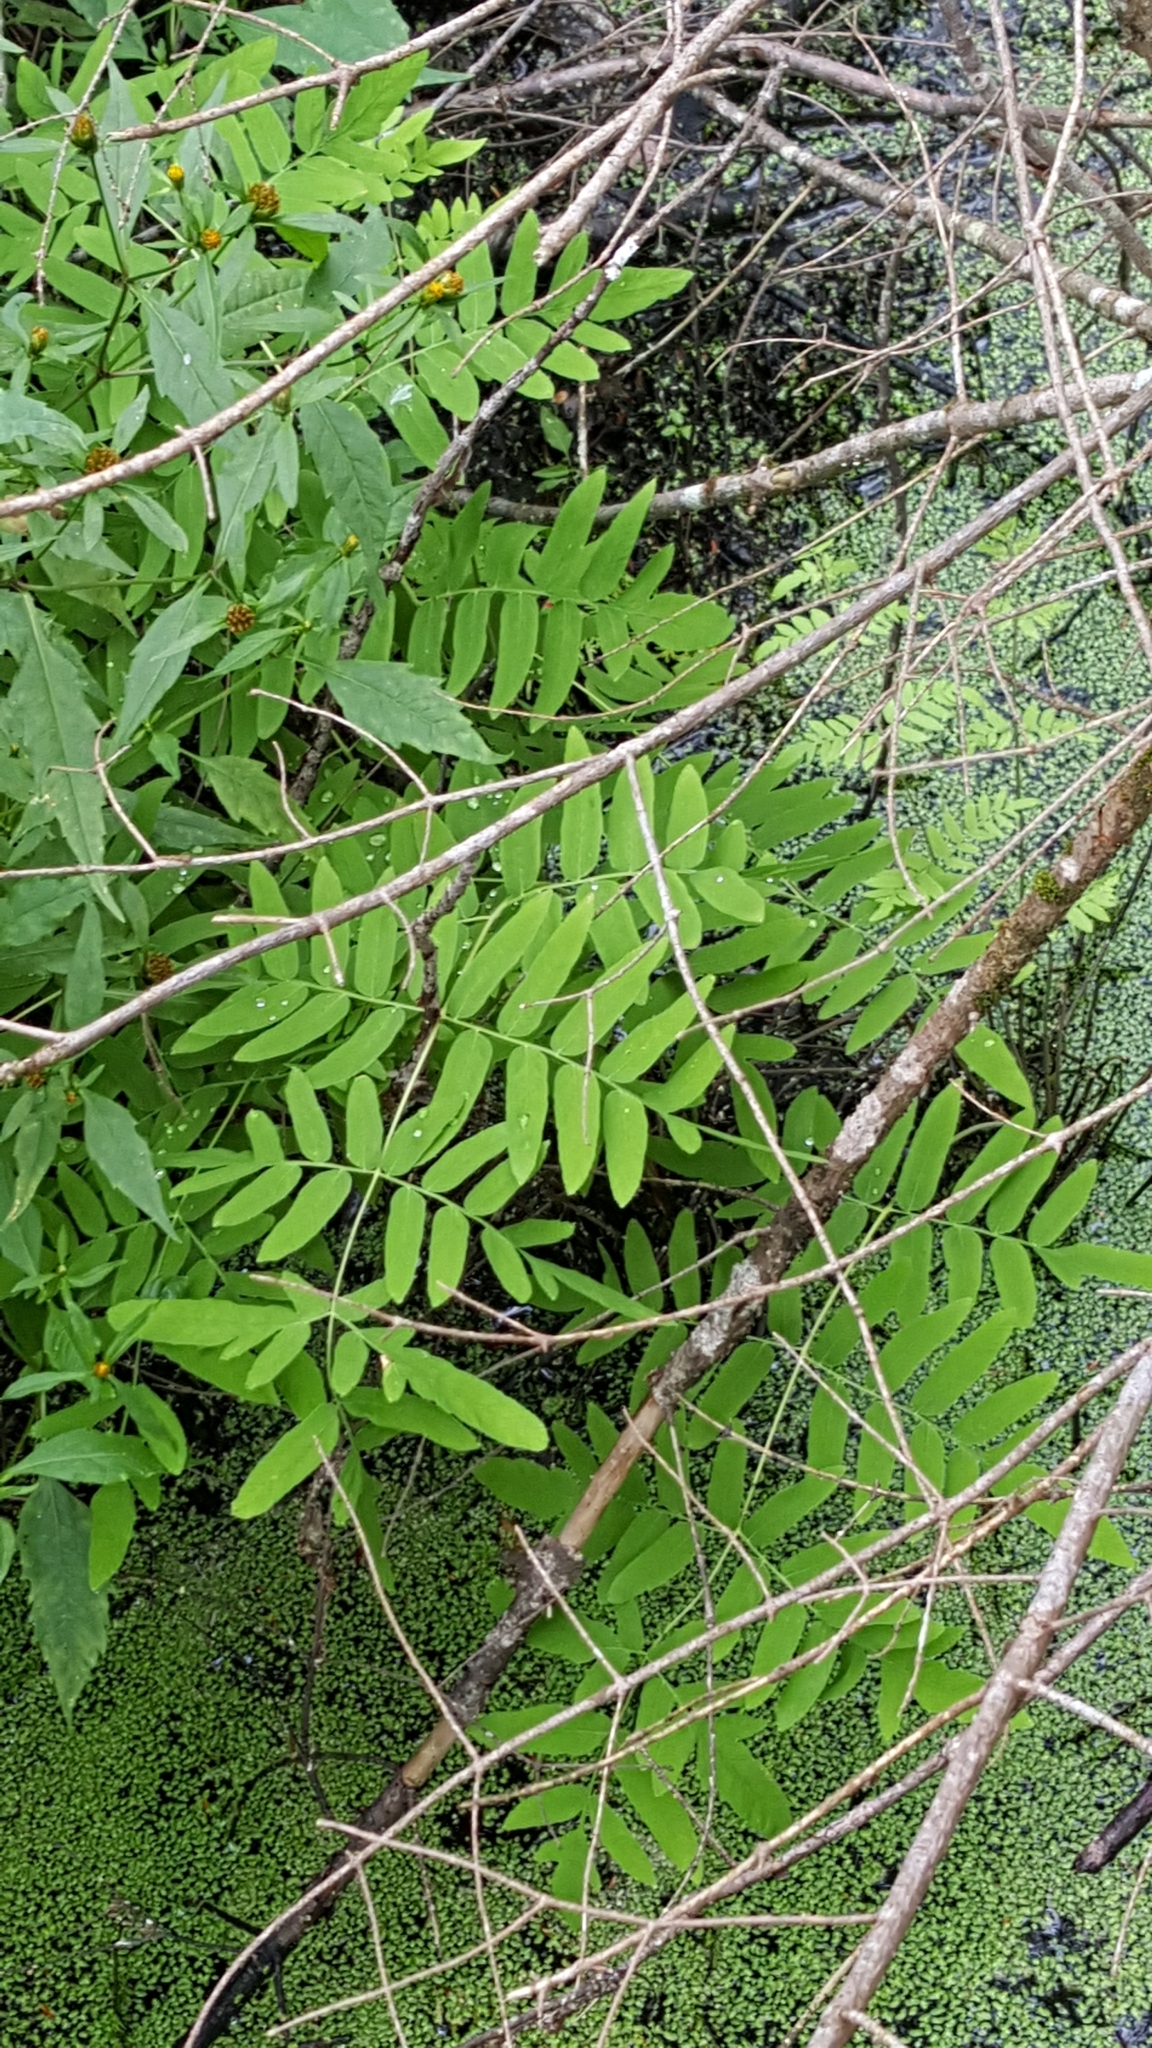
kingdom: Plantae
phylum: Tracheophyta
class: Polypodiopsida
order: Osmundales
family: Osmundaceae
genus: Osmunda
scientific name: Osmunda spectabilis
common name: American royal fern
